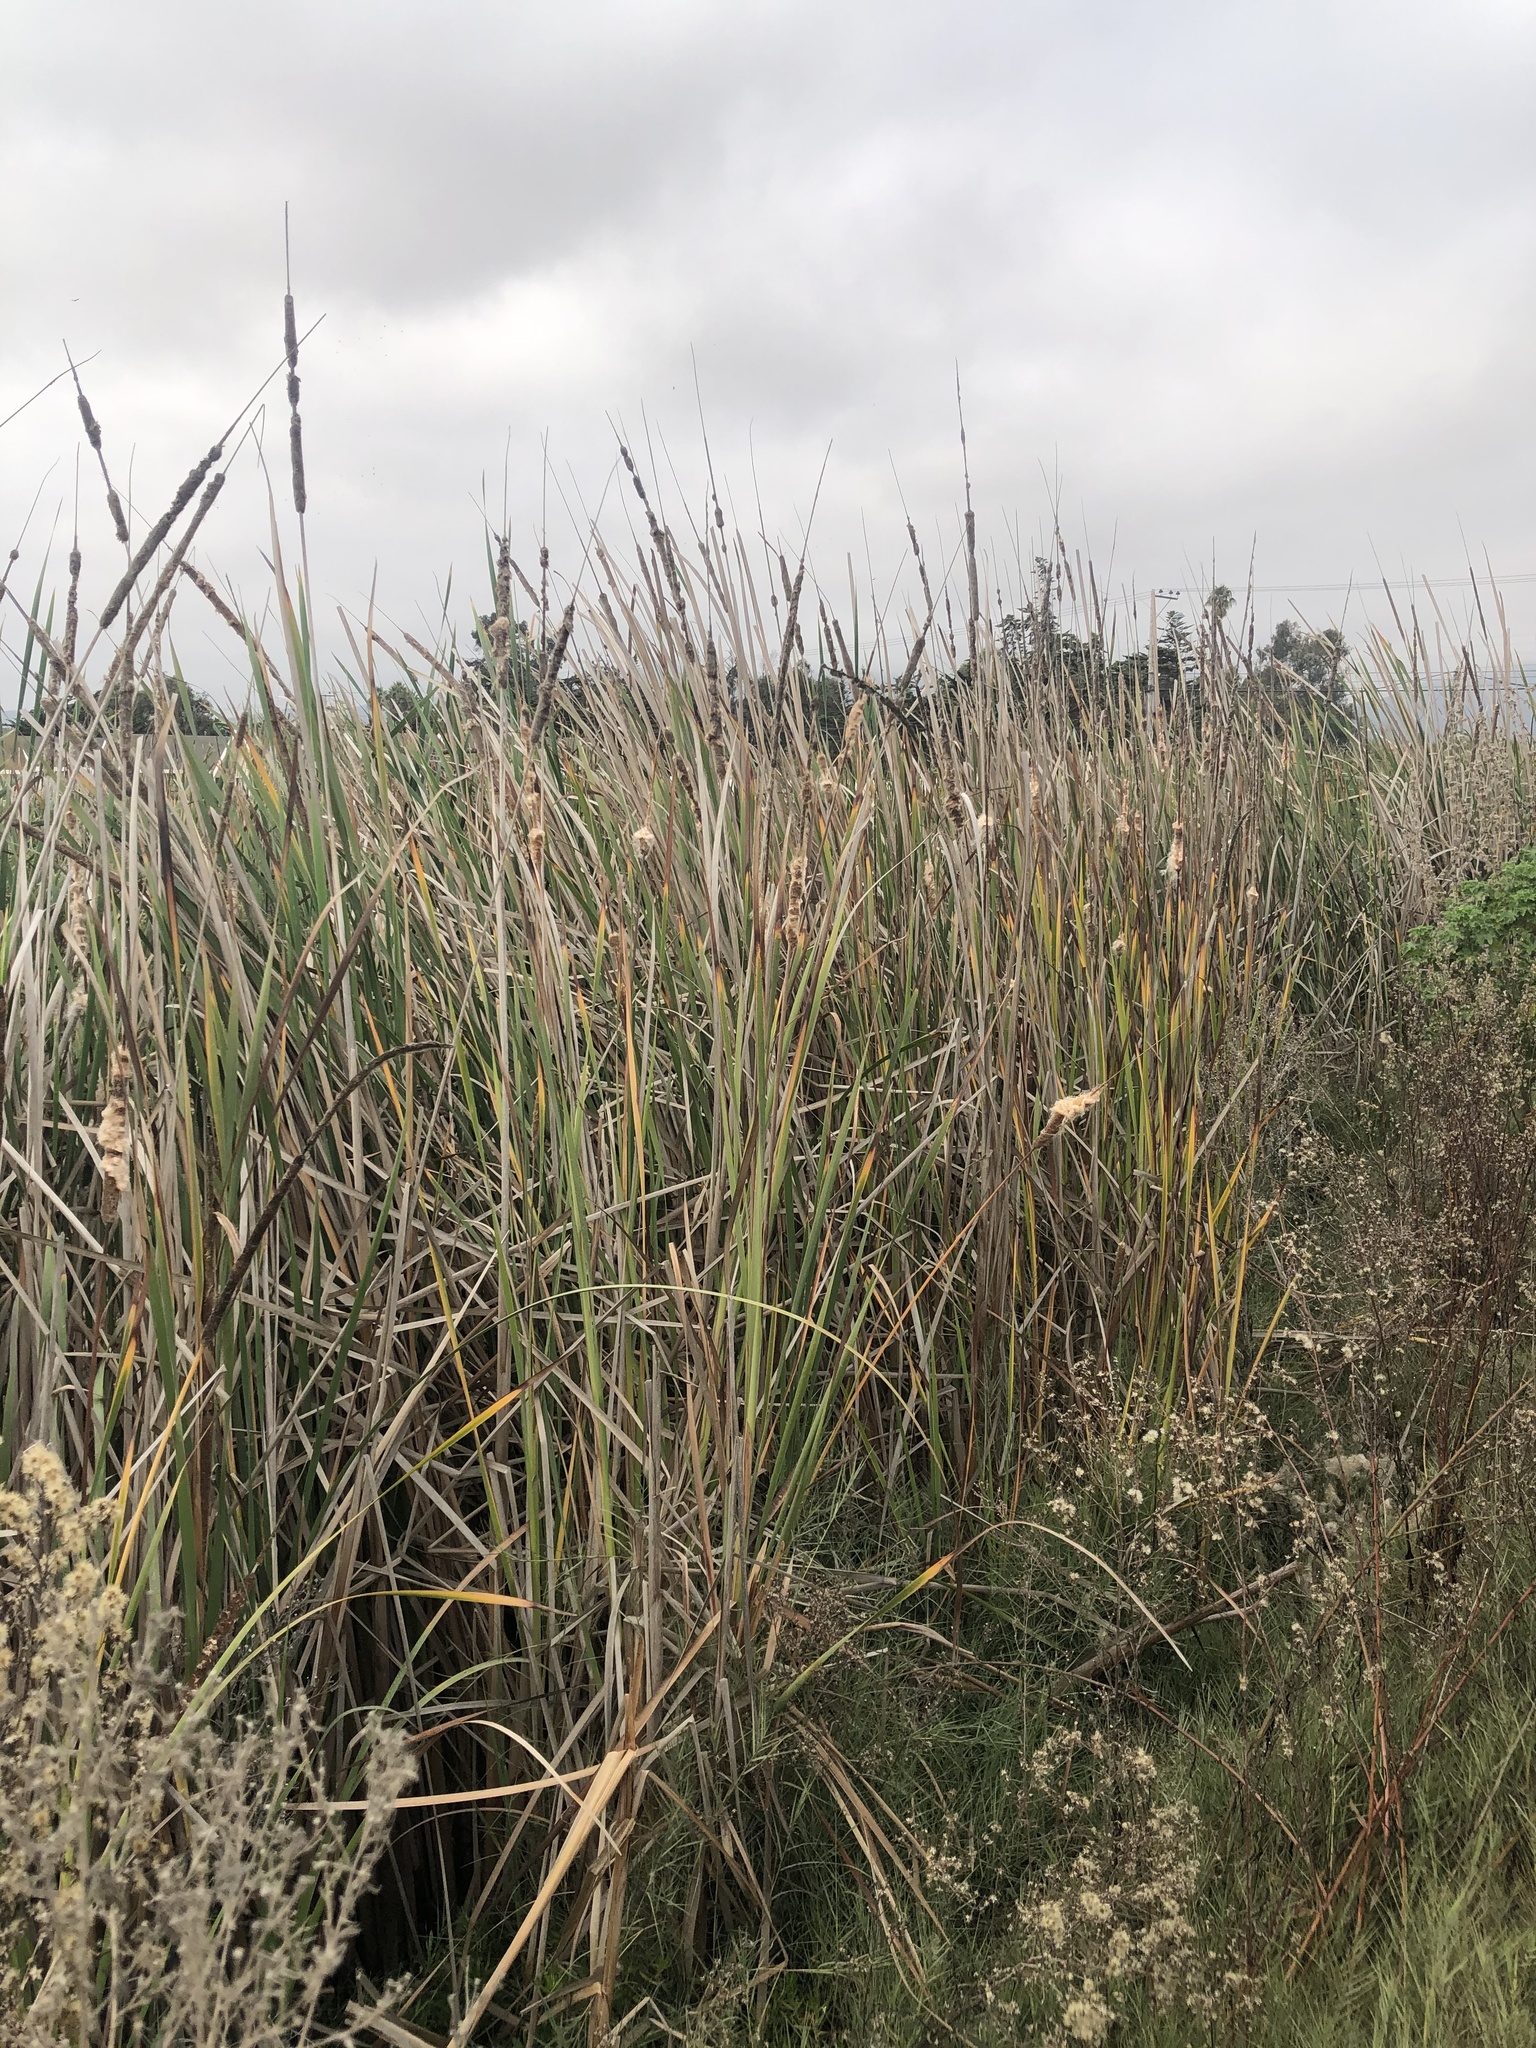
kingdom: Plantae
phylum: Tracheophyta
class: Liliopsida
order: Poales
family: Typhaceae
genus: Typha
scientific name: Typha latifolia
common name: Broadleaf cattail
